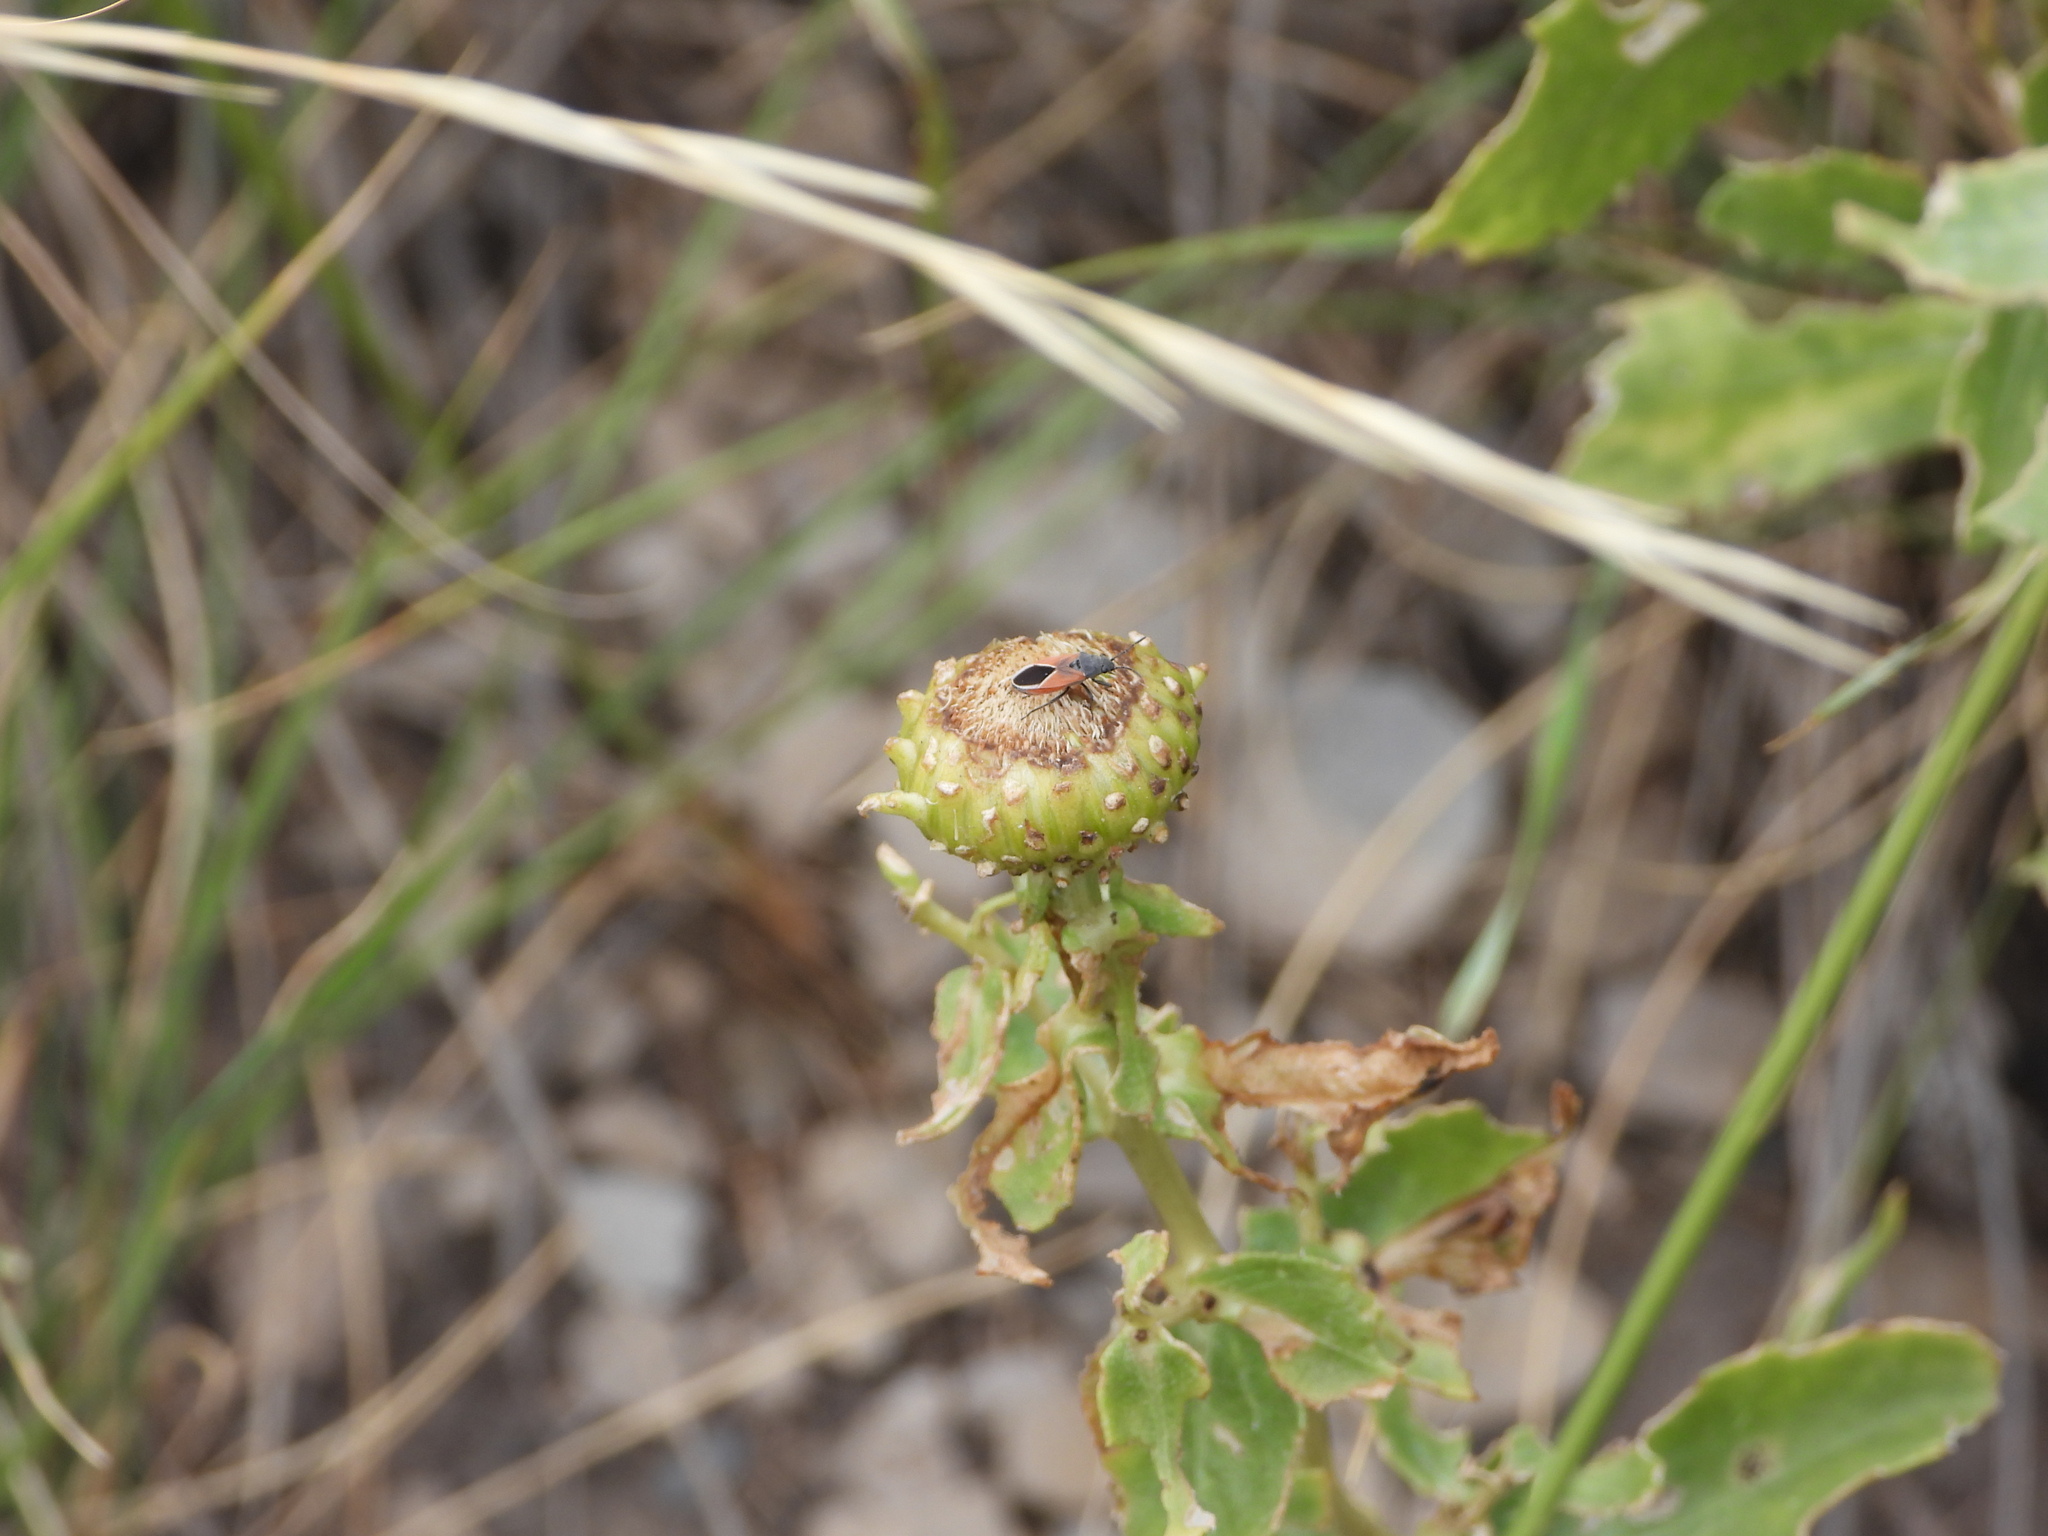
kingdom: Animalia
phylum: Arthropoda
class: Insecta
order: Hemiptera
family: Lygaeidae
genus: Melanopleurus
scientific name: Melanopleurus pyrrhopterus
